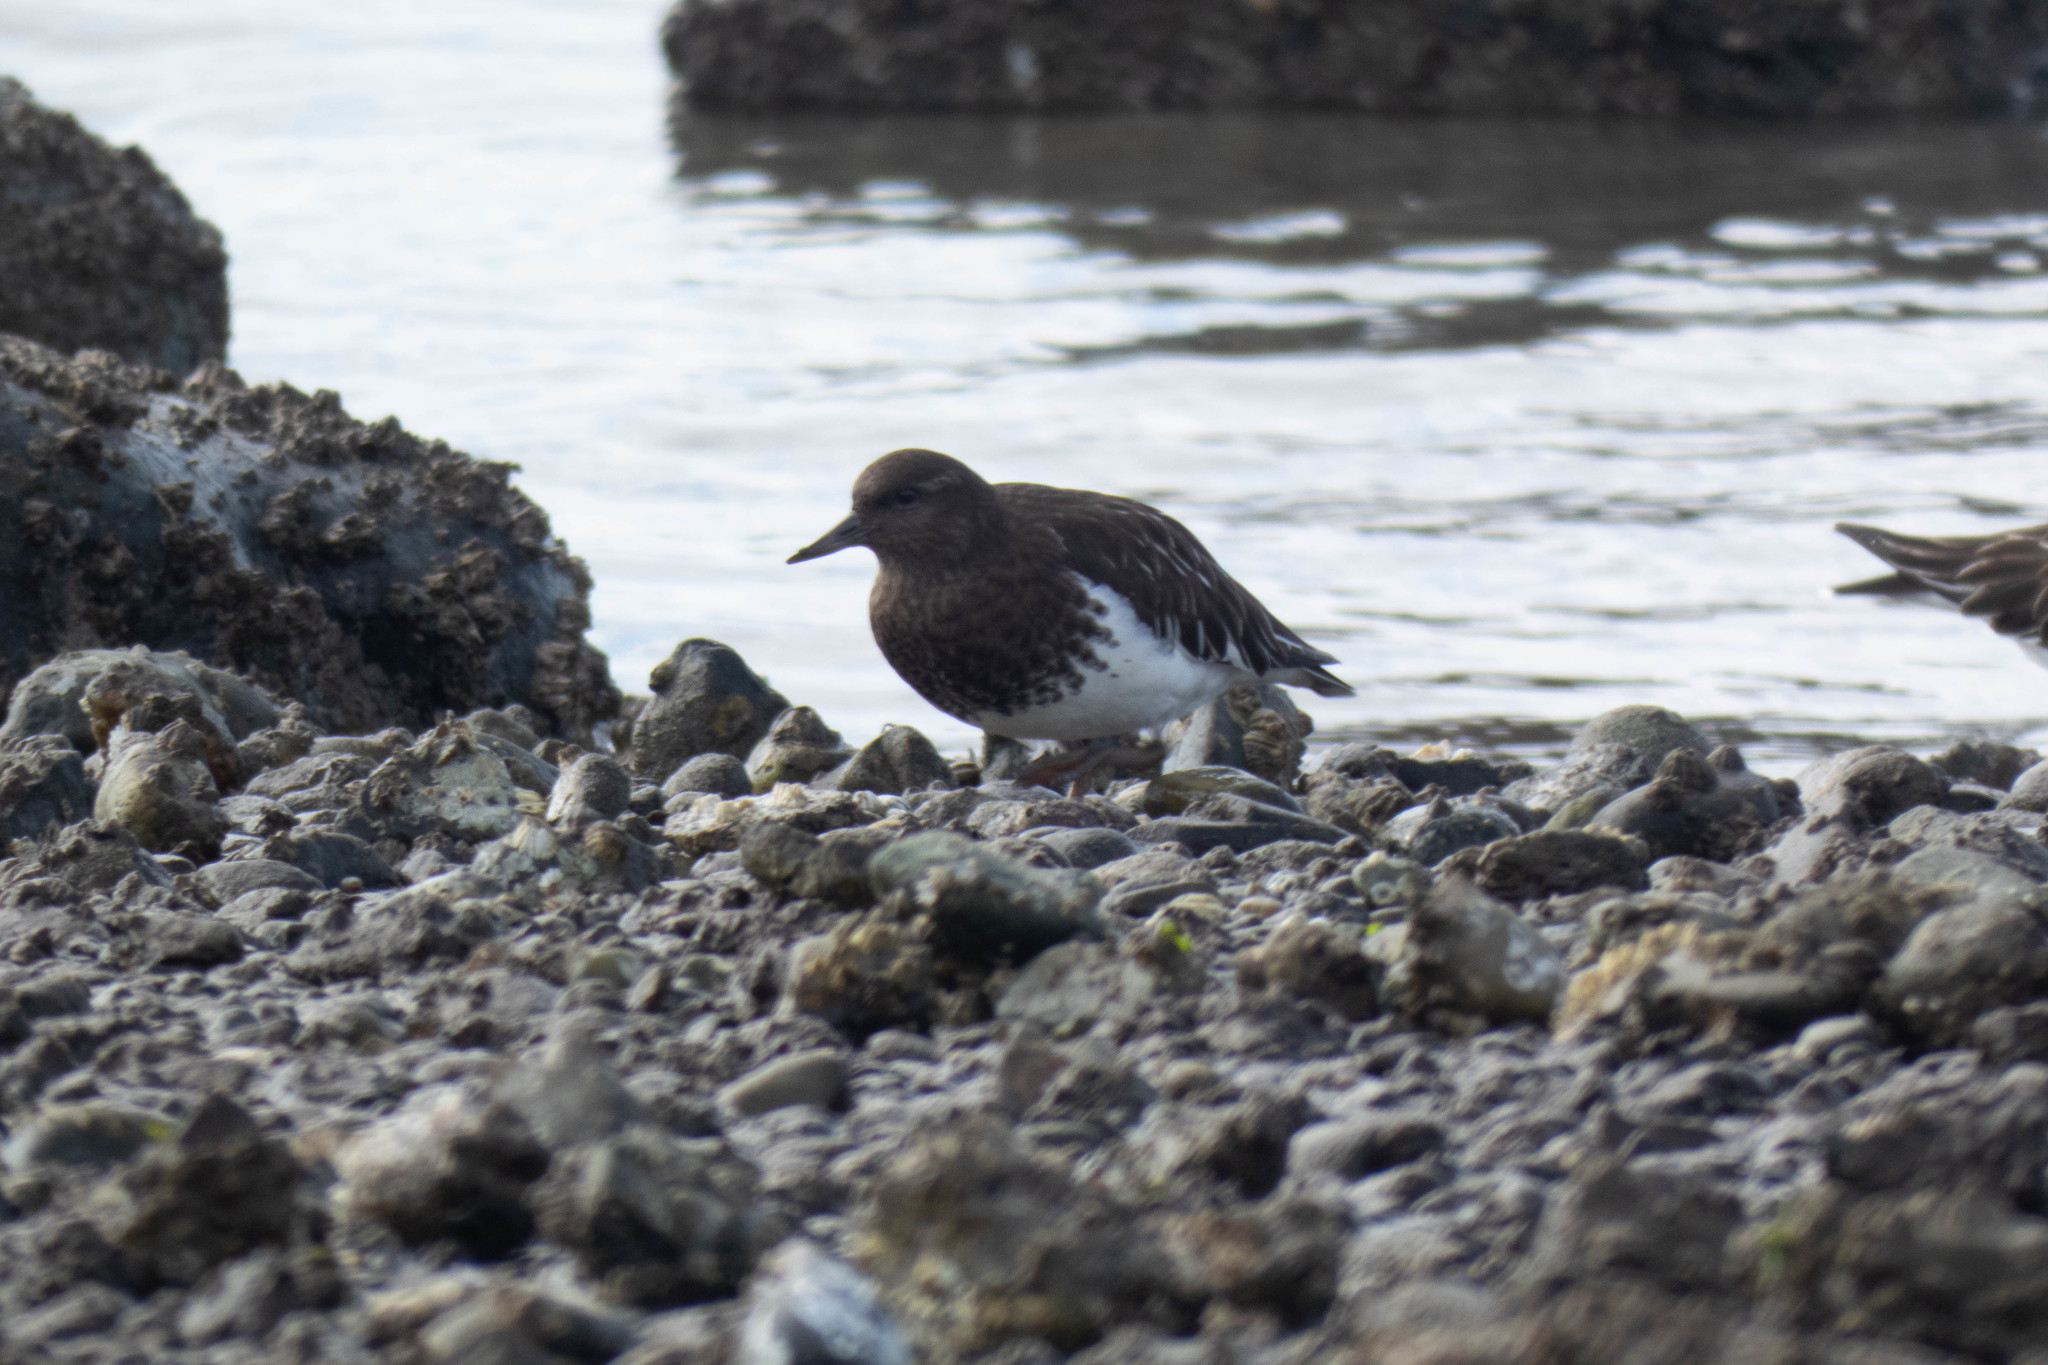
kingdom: Animalia
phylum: Chordata
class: Aves
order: Charadriiformes
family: Scolopacidae
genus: Arenaria
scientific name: Arenaria melanocephala
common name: Black turnstone
